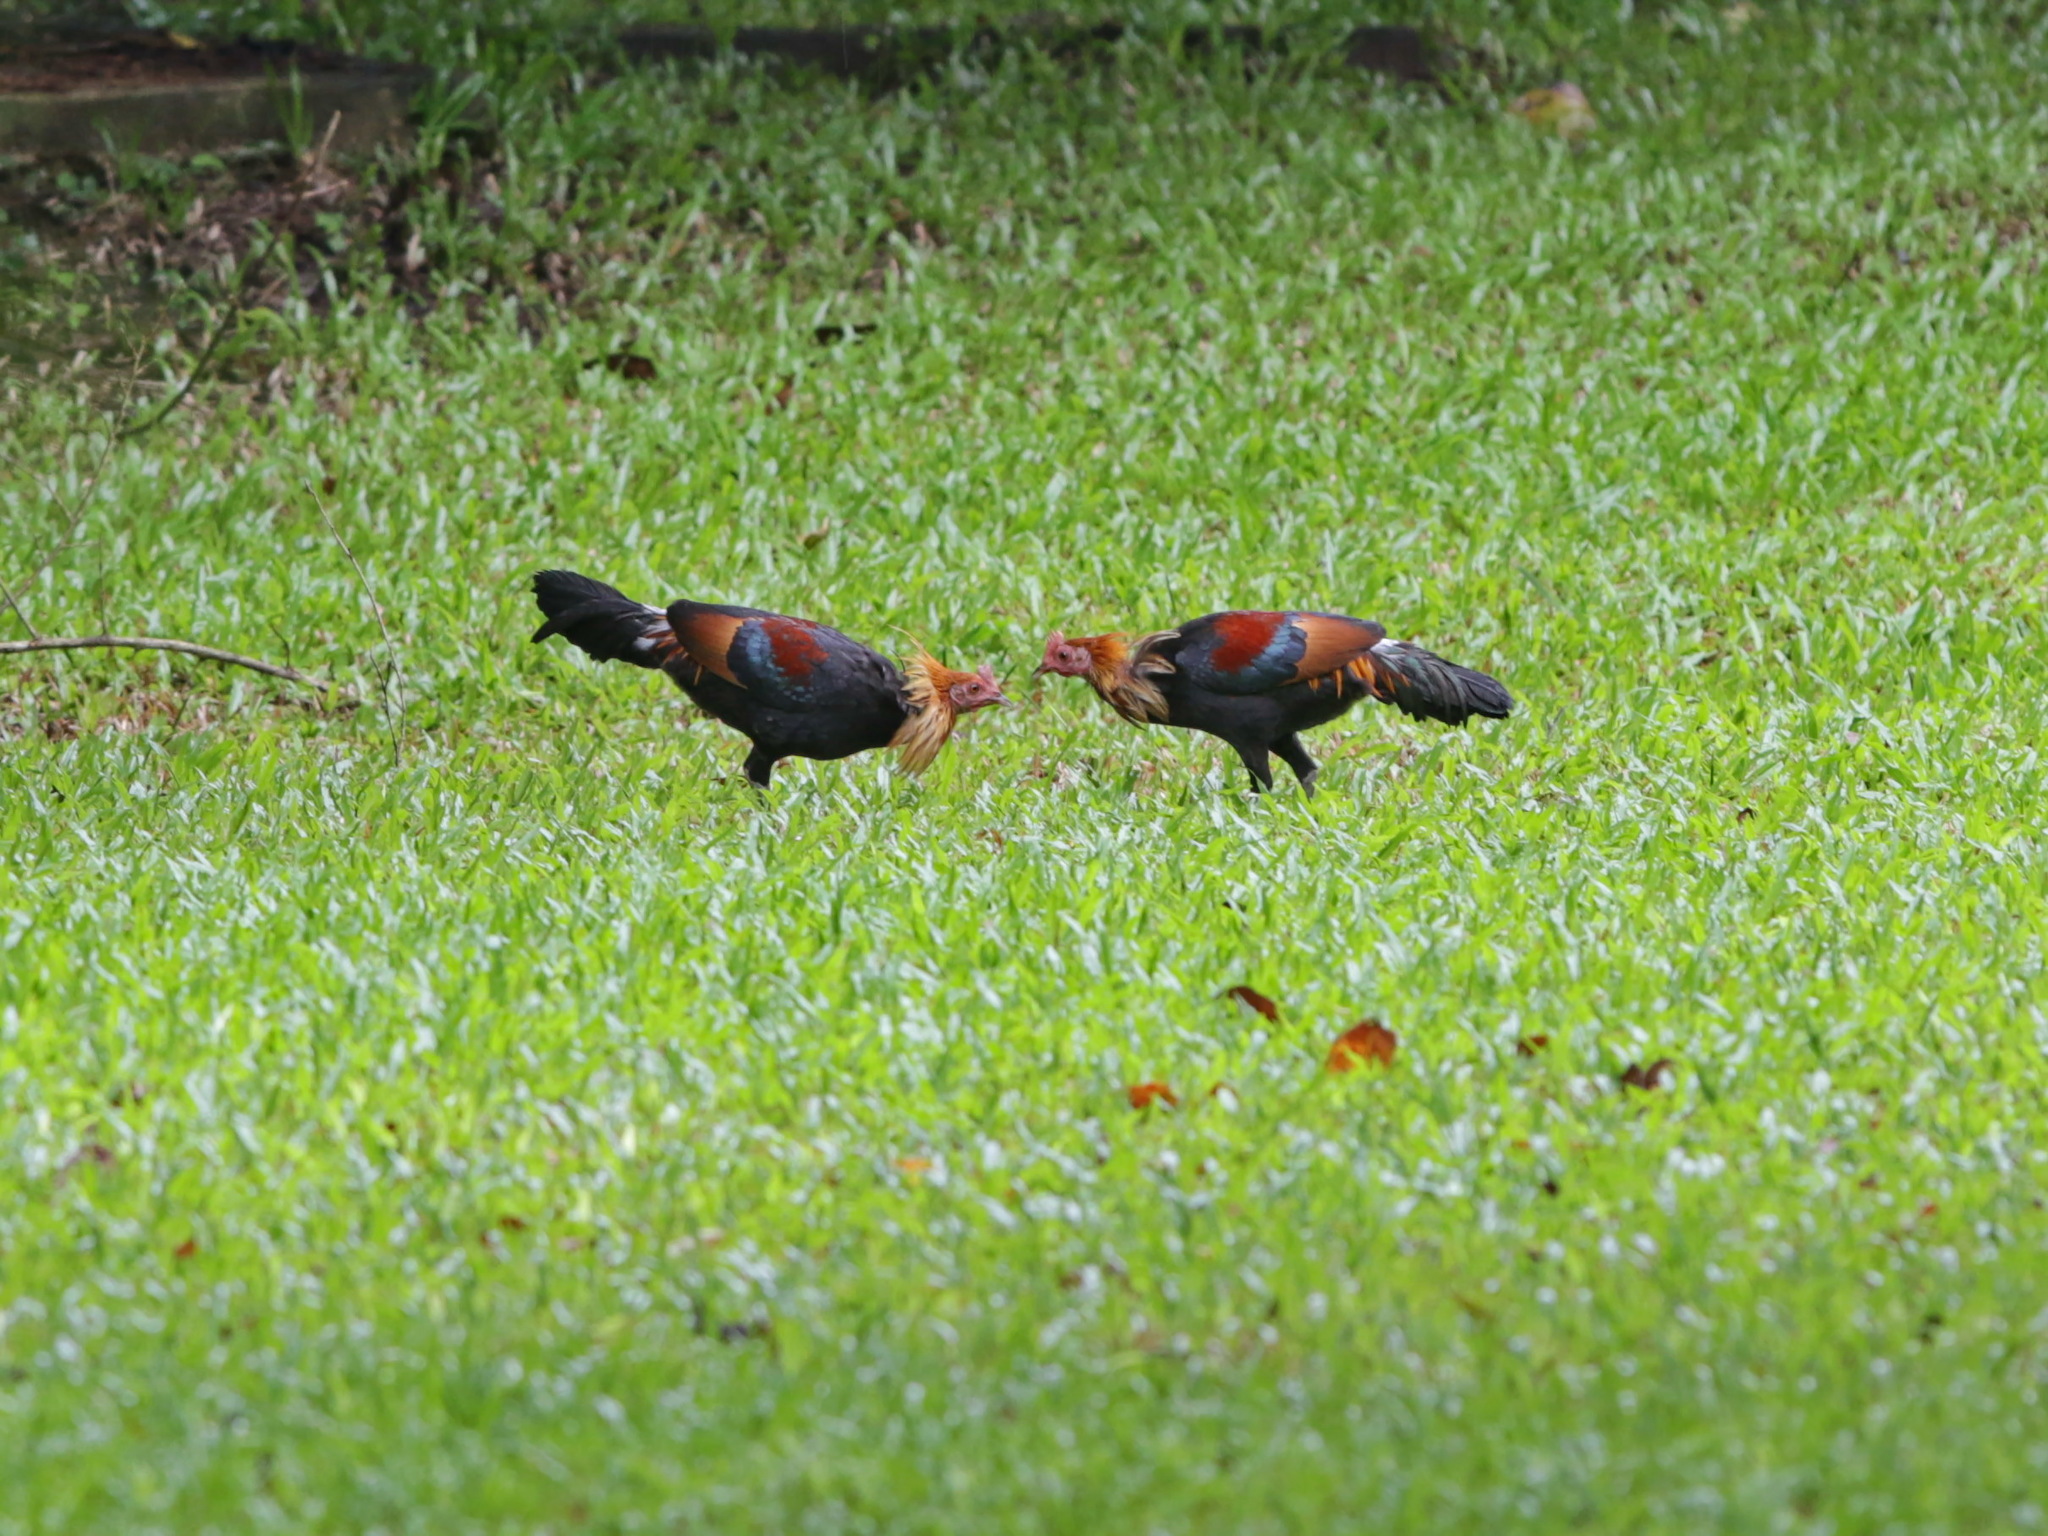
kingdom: Animalia
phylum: Chordata
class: Aves
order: Galliformes
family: Phasianidae
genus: Gallus
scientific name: Gallus gallus
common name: Red junglefowl
